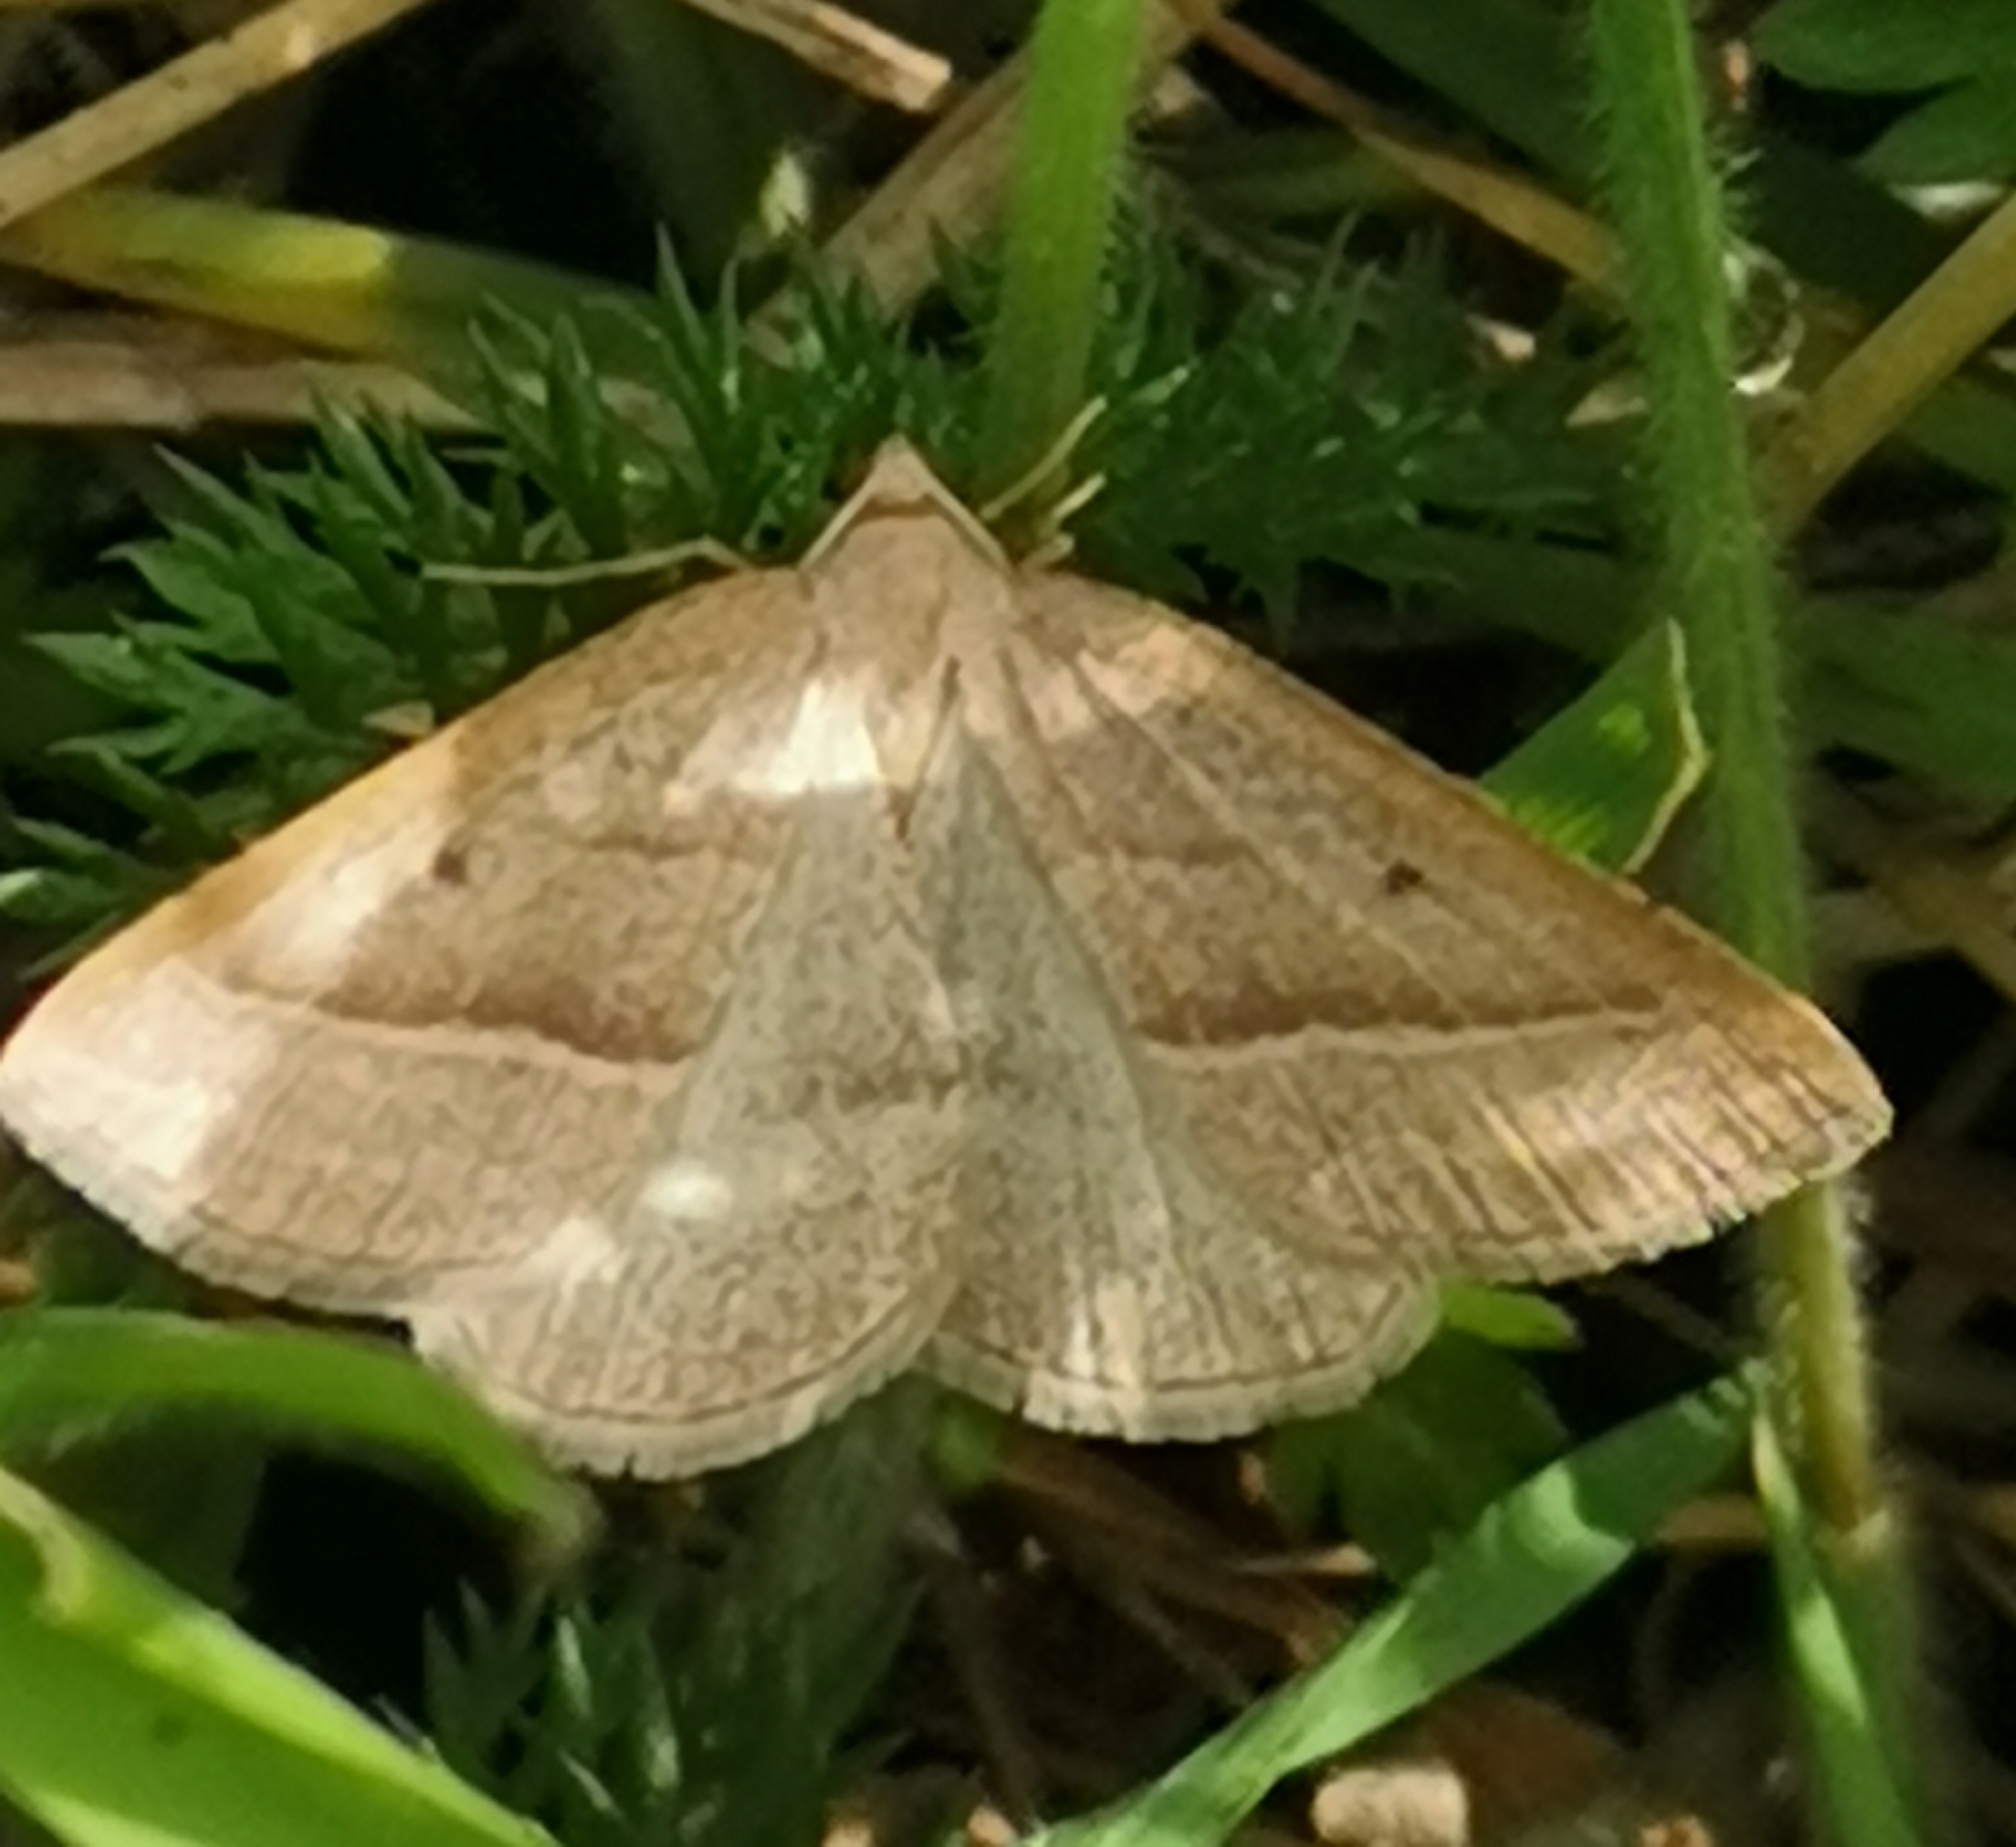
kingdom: Animalia
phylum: Arthropoda
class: Insecta
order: Lepidoptera
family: Pterophoridae
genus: Pterophorus
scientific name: Pterophorus Petrophora chlorosata
